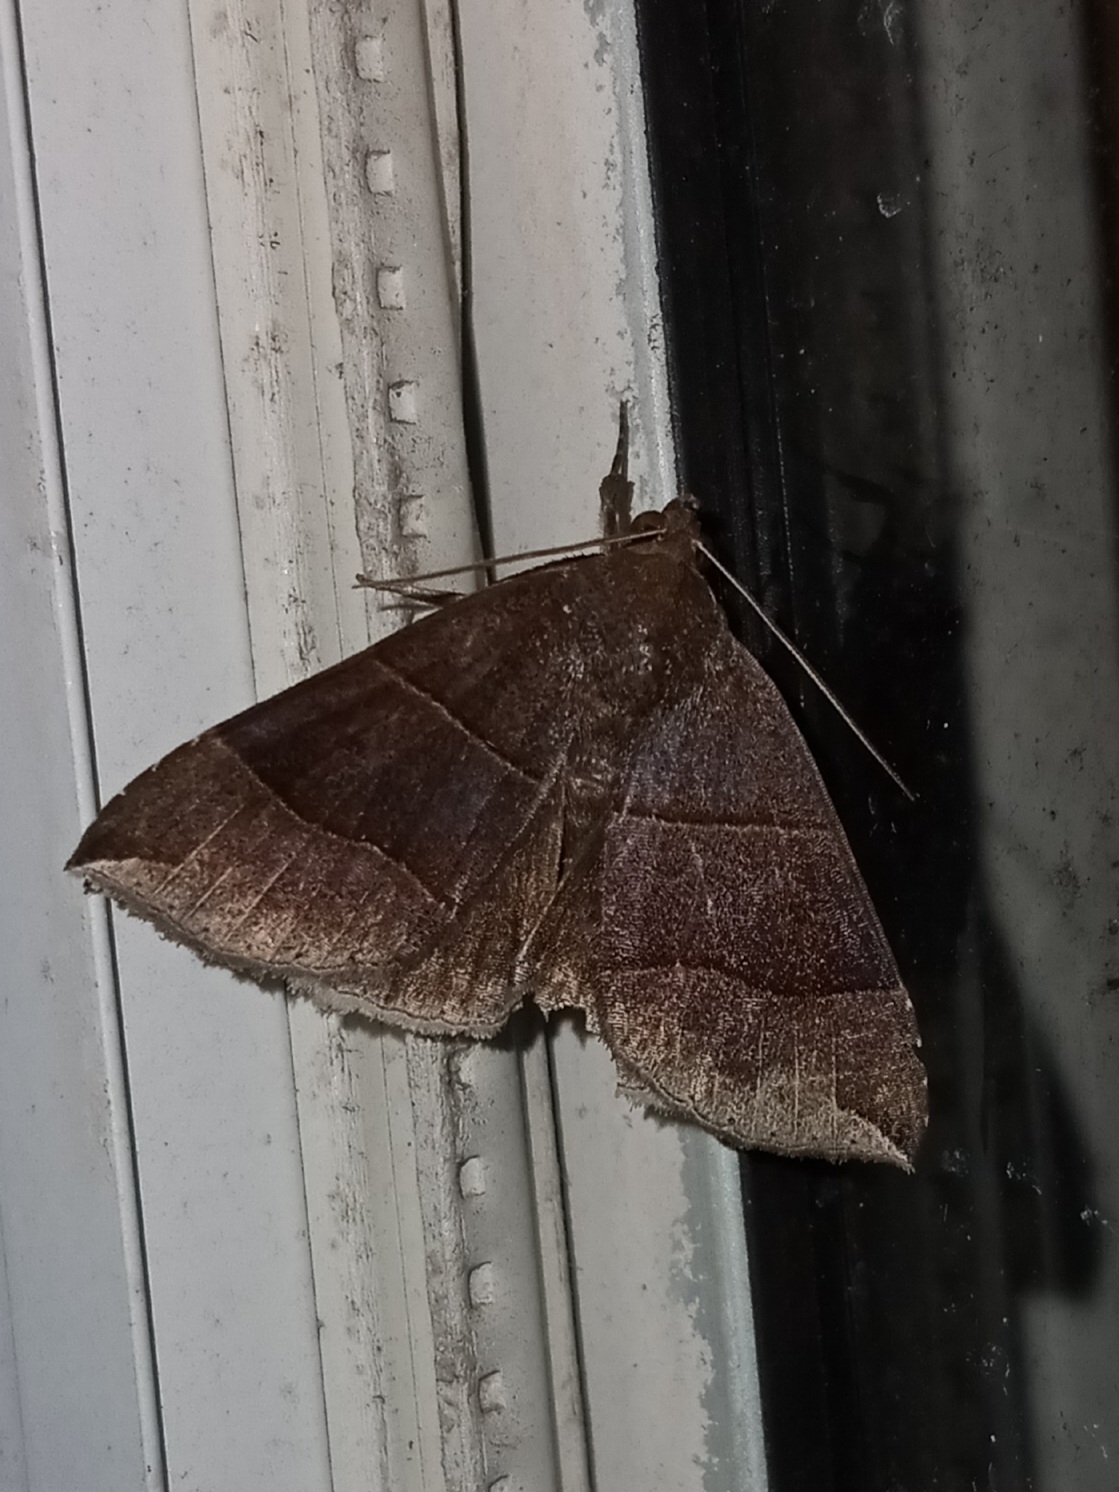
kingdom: Animalia
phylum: Arthropoda
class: Insecta
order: Lepidoptera
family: Erebidae
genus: Parallelia
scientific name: Parallelia bistriaris
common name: Maple looper moth
